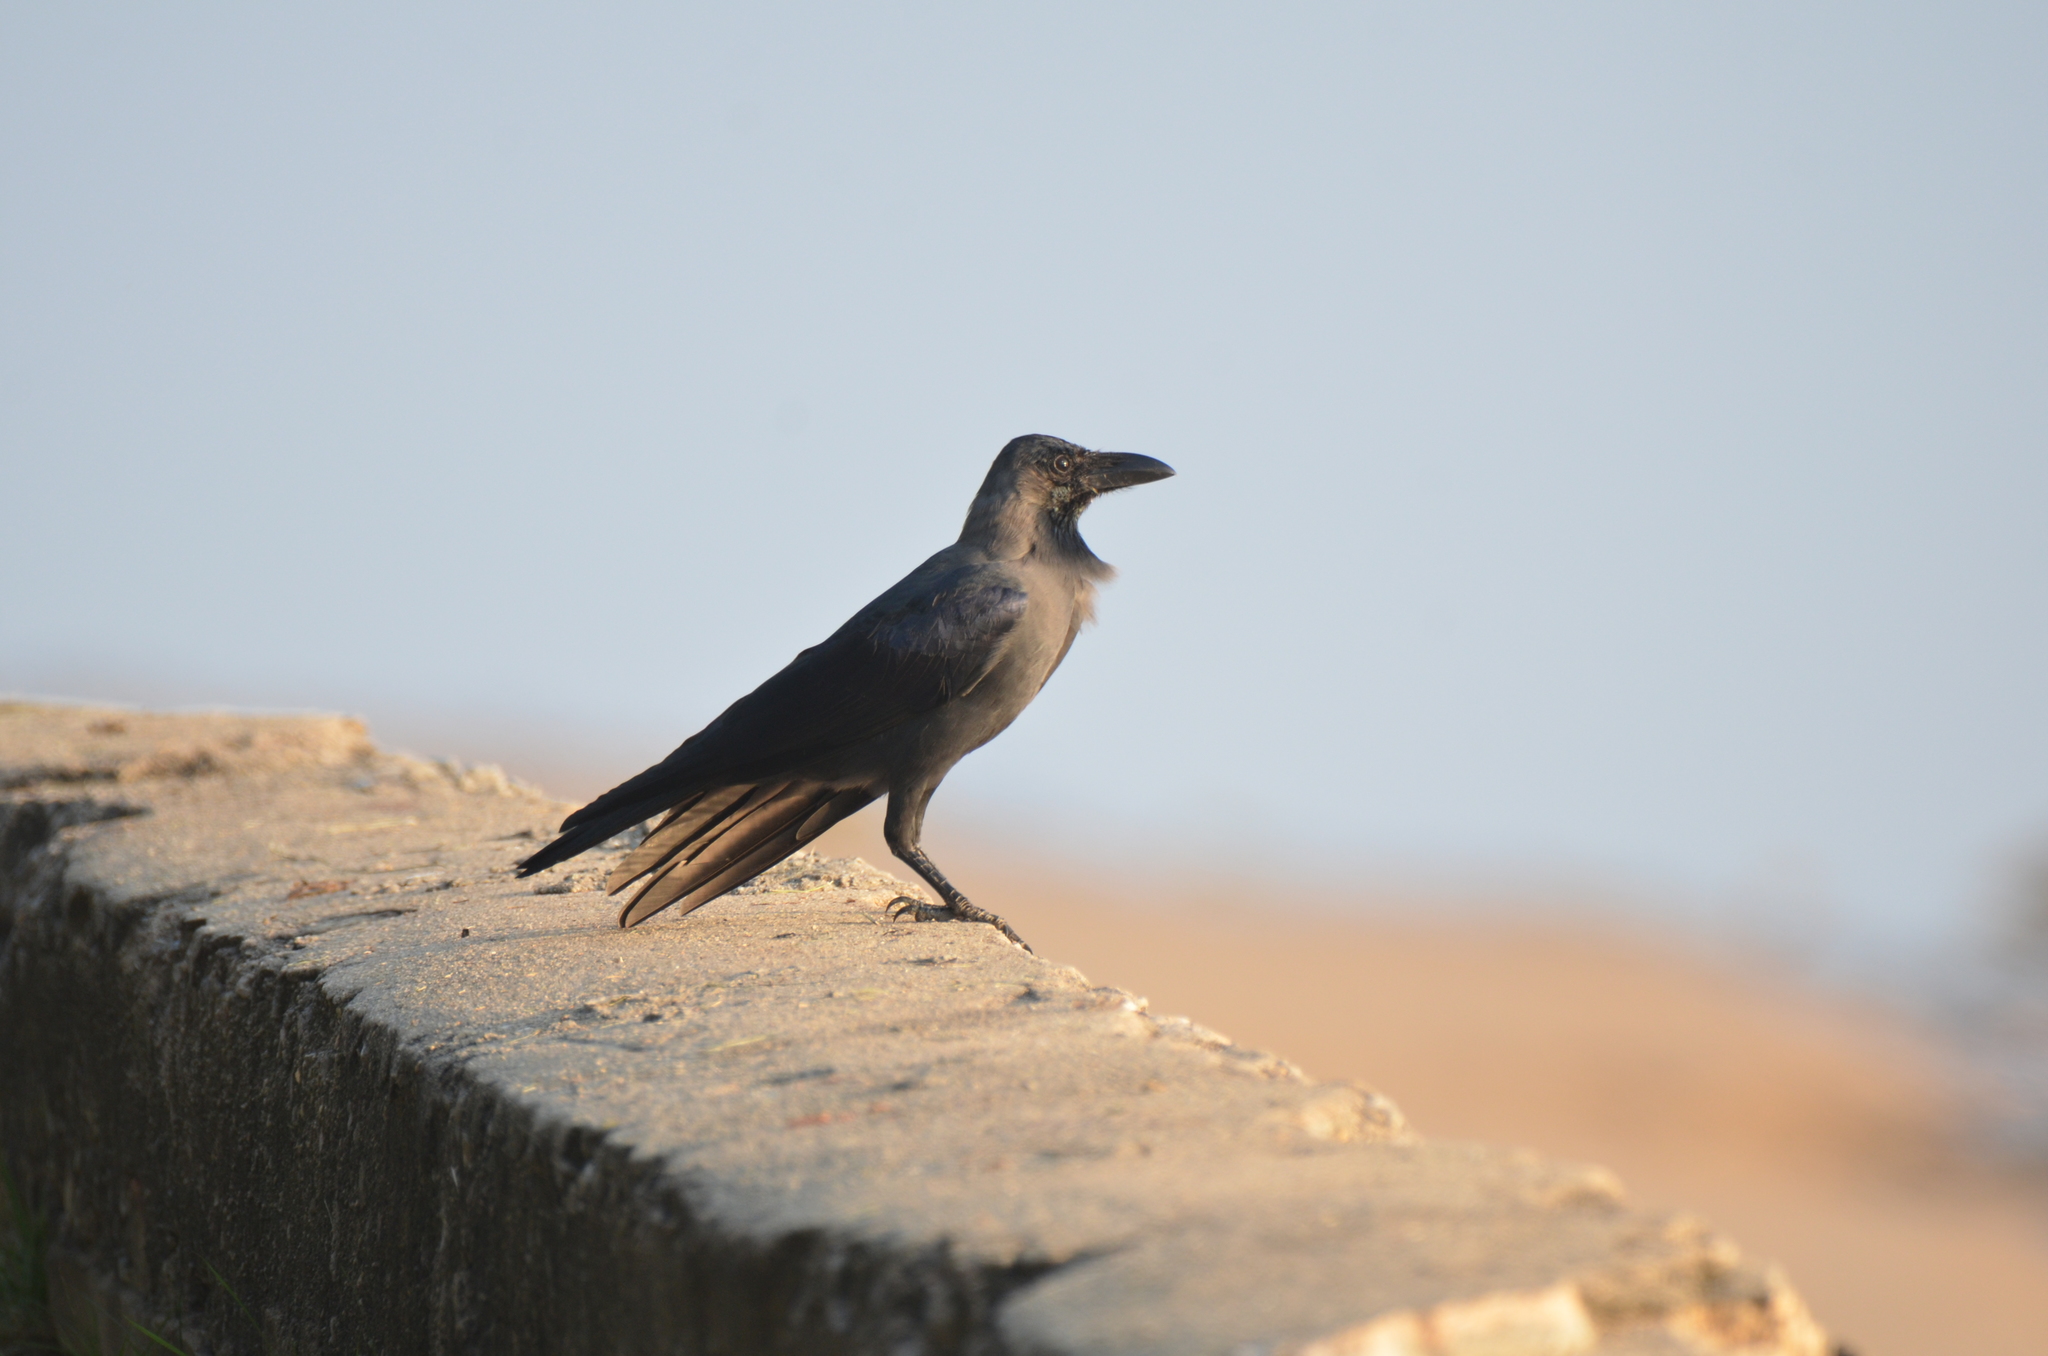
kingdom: Animalia
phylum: Chordata
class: Aves
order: Passeriformes
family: Corvidae
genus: Corvus
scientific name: Corvus splendens
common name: House crow
